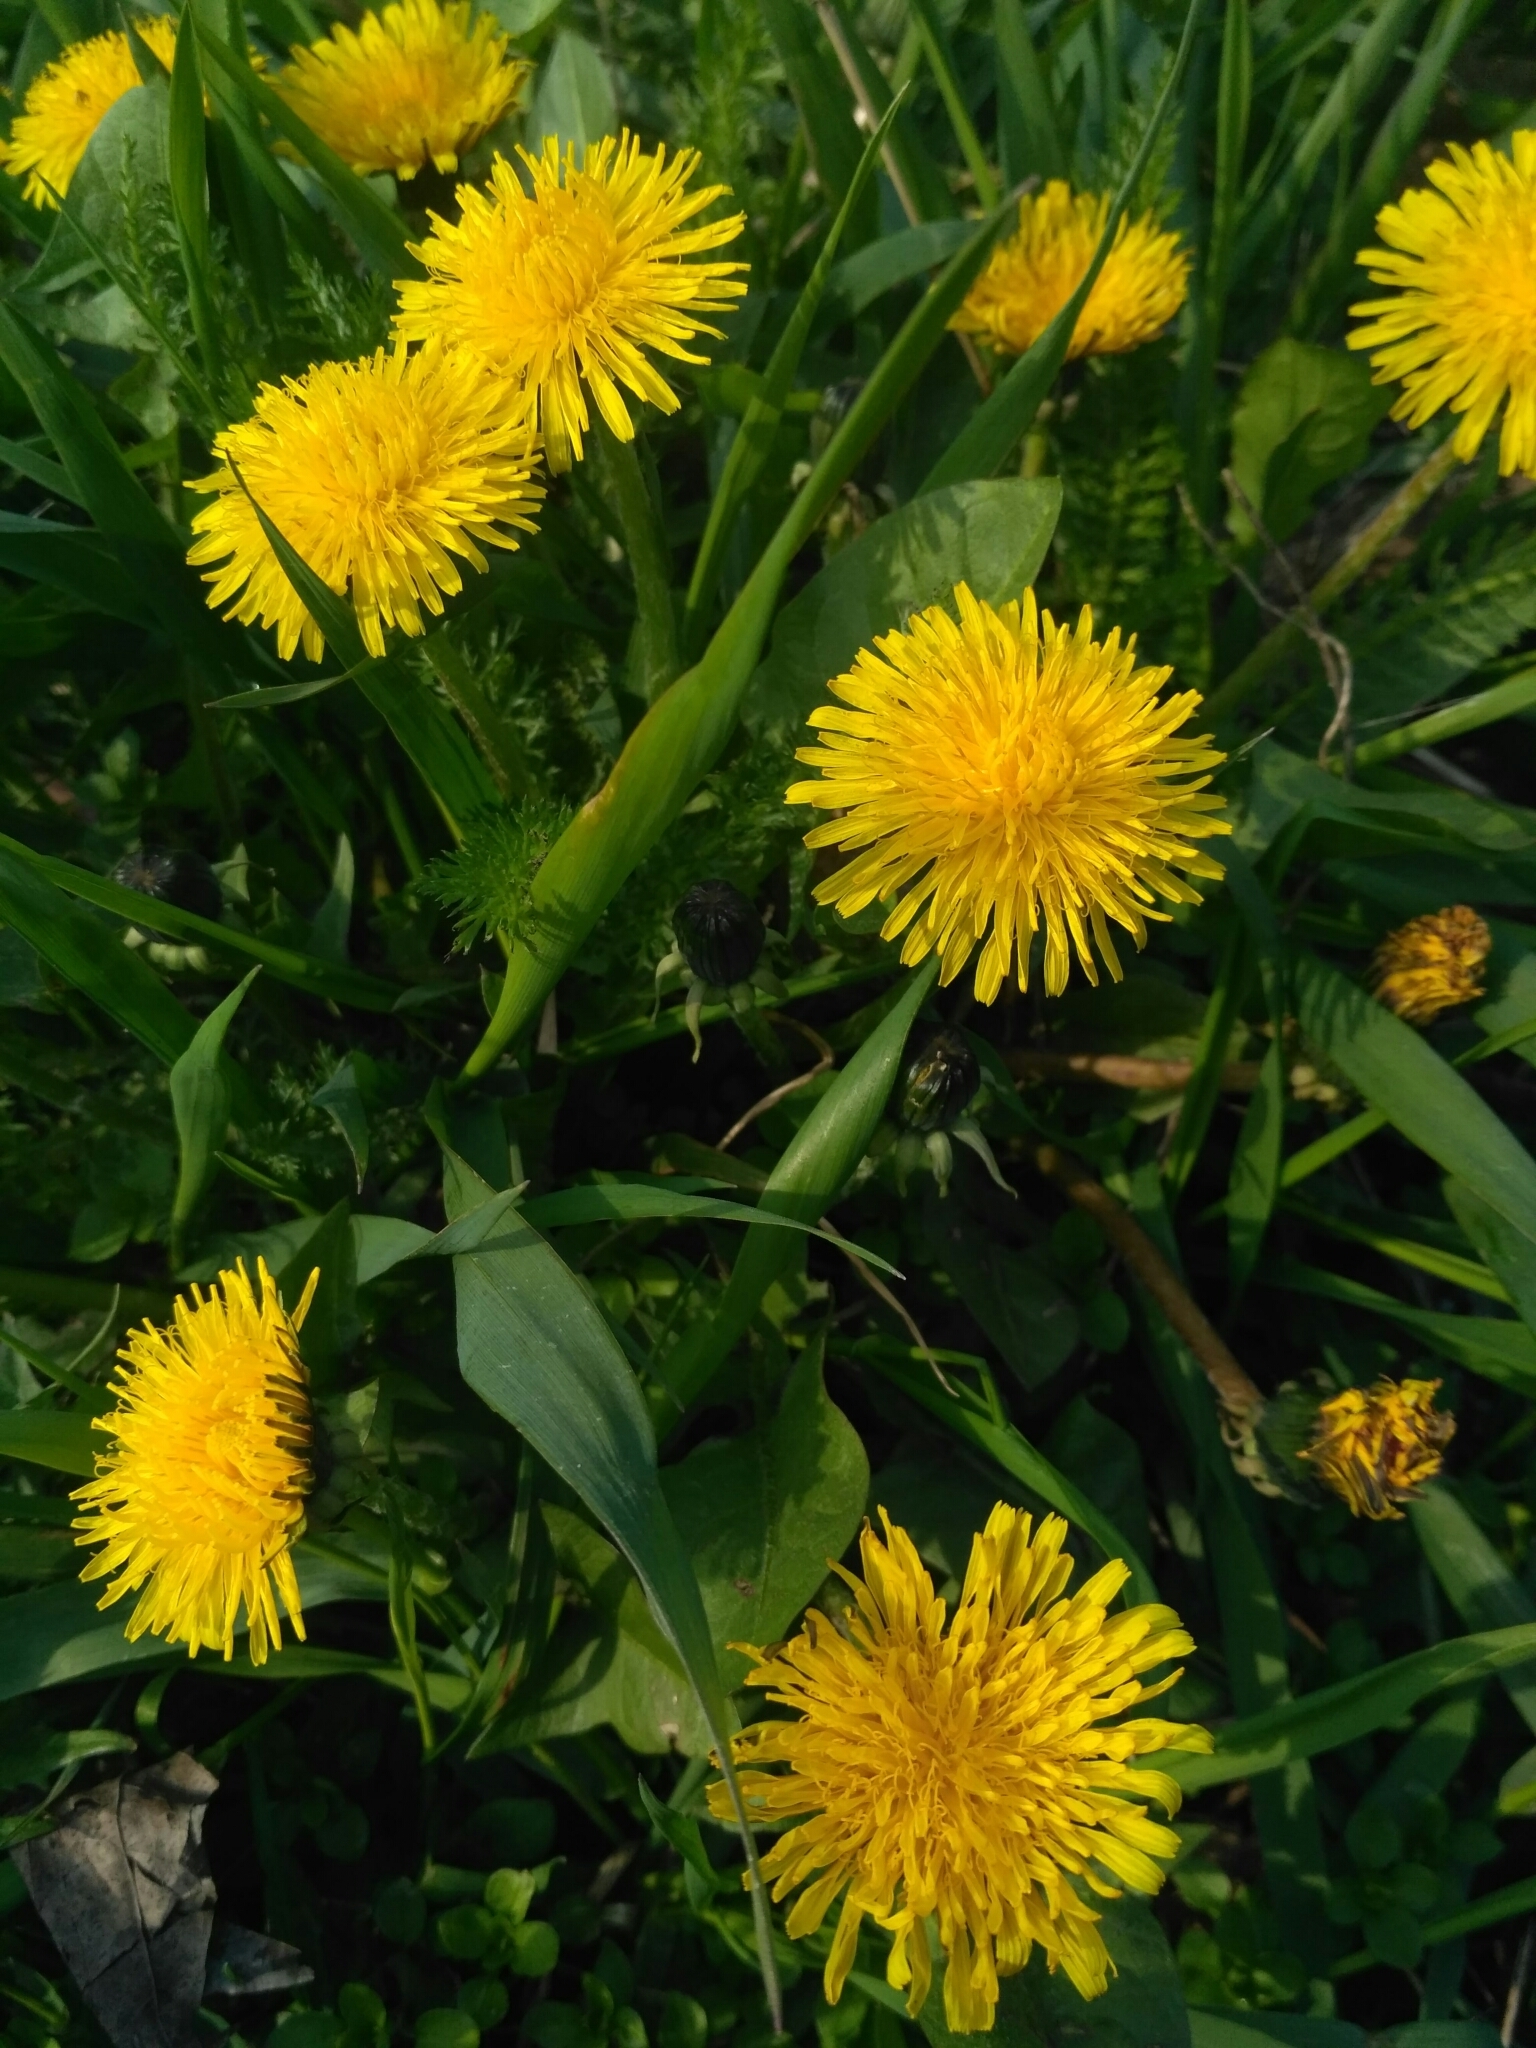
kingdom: Plantae
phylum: Tracheophyta
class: Magnoliopsida
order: Asterales
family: Asteraceae
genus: Taraxacum
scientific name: Taraxacum officinale
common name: Common dandelion
